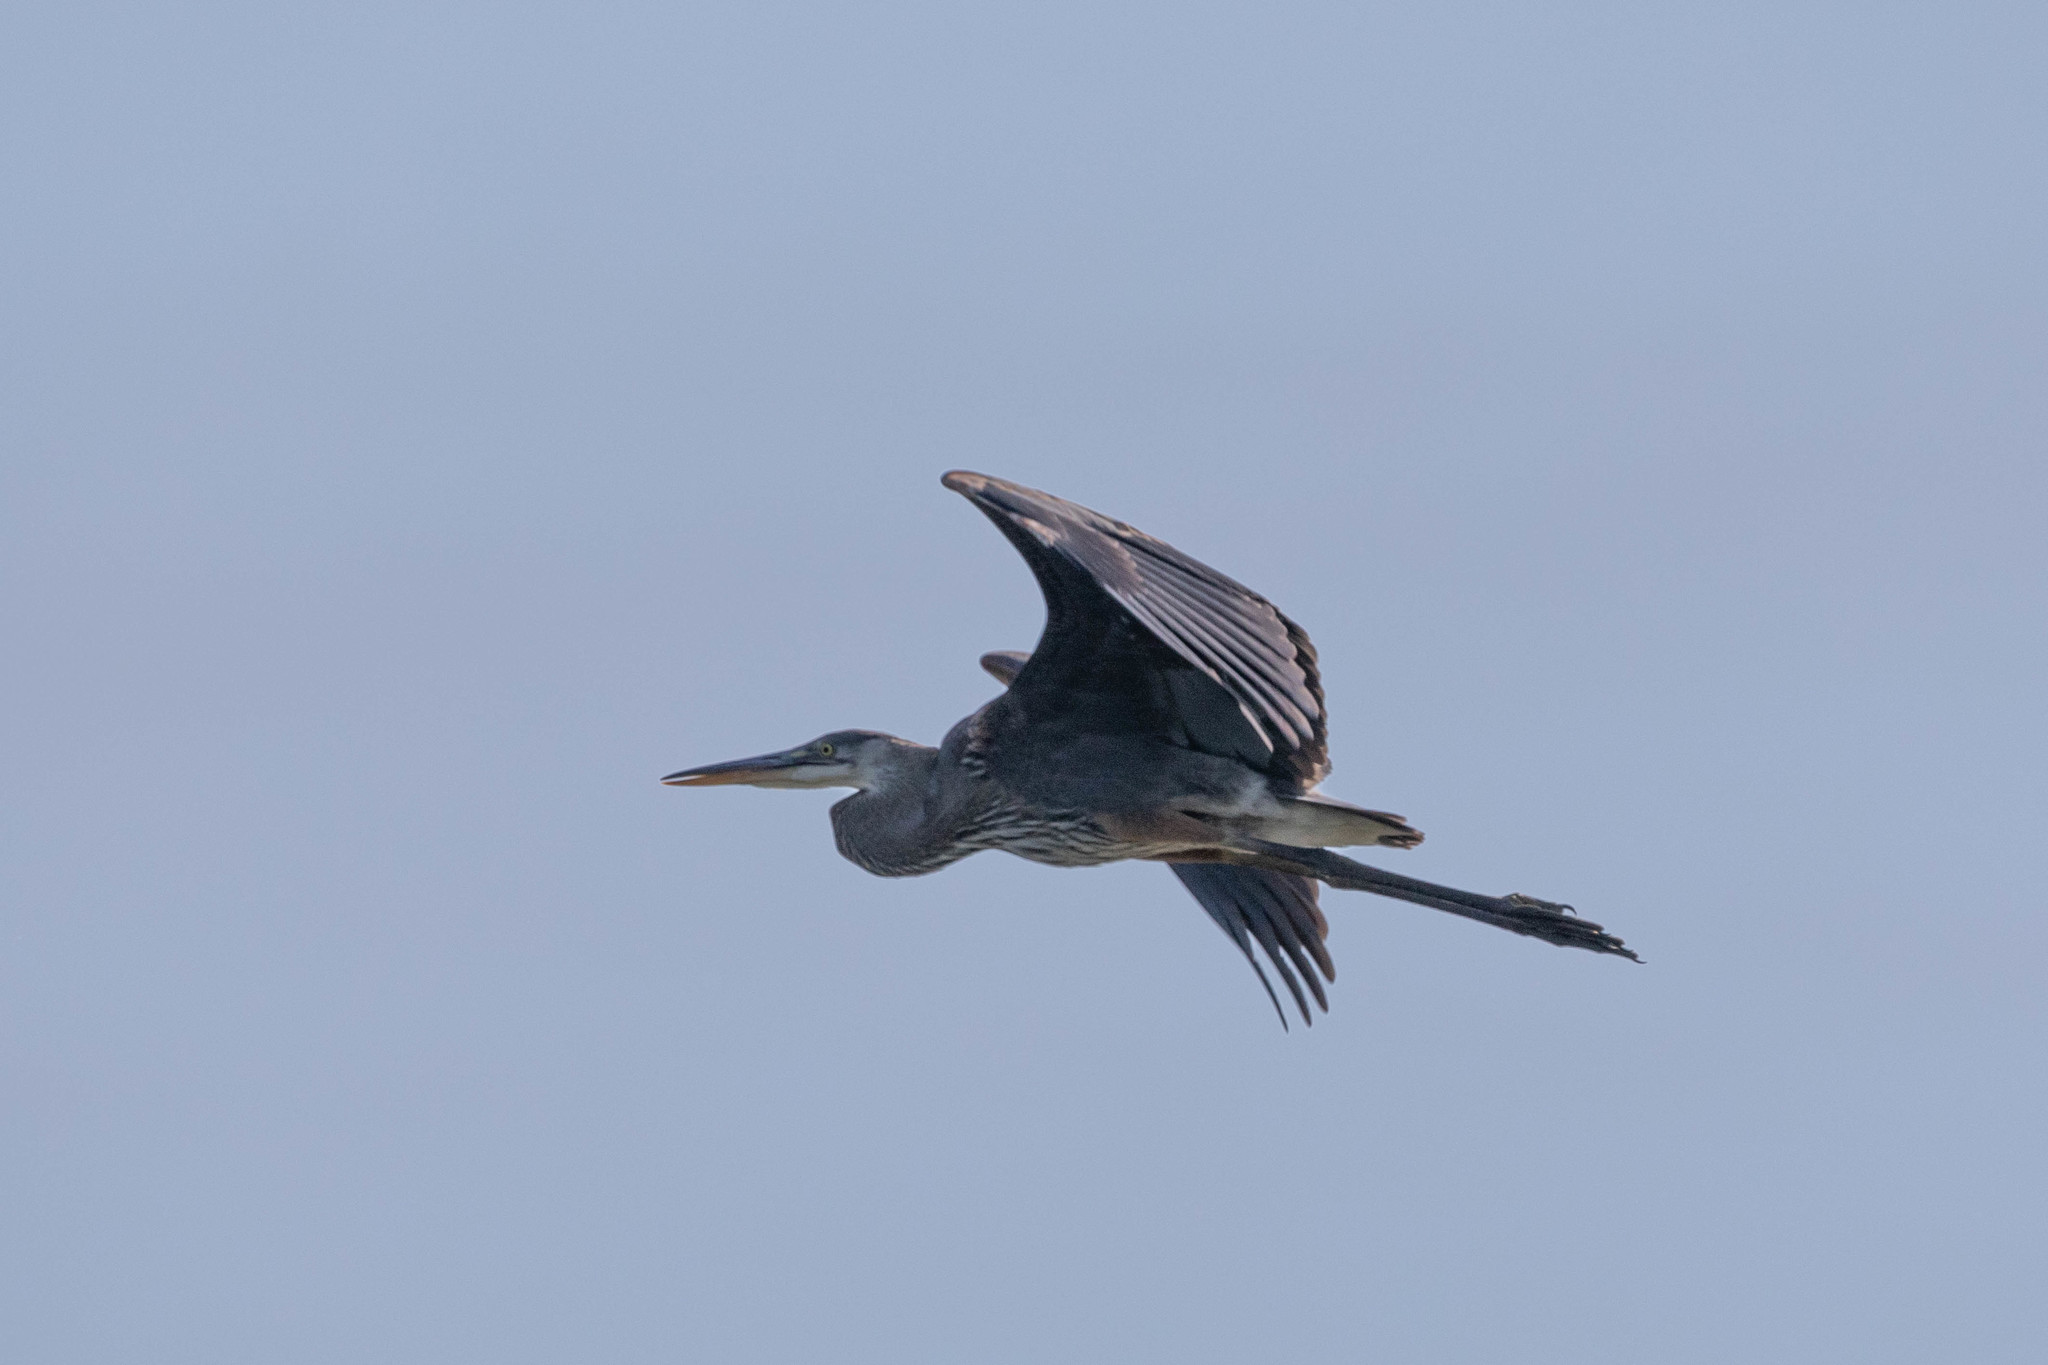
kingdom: Animalia
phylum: Chordata
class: Aves
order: Pelecaniformes
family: Ardeidae
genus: Ardea
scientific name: Ardea herodias
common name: Great blue heron
